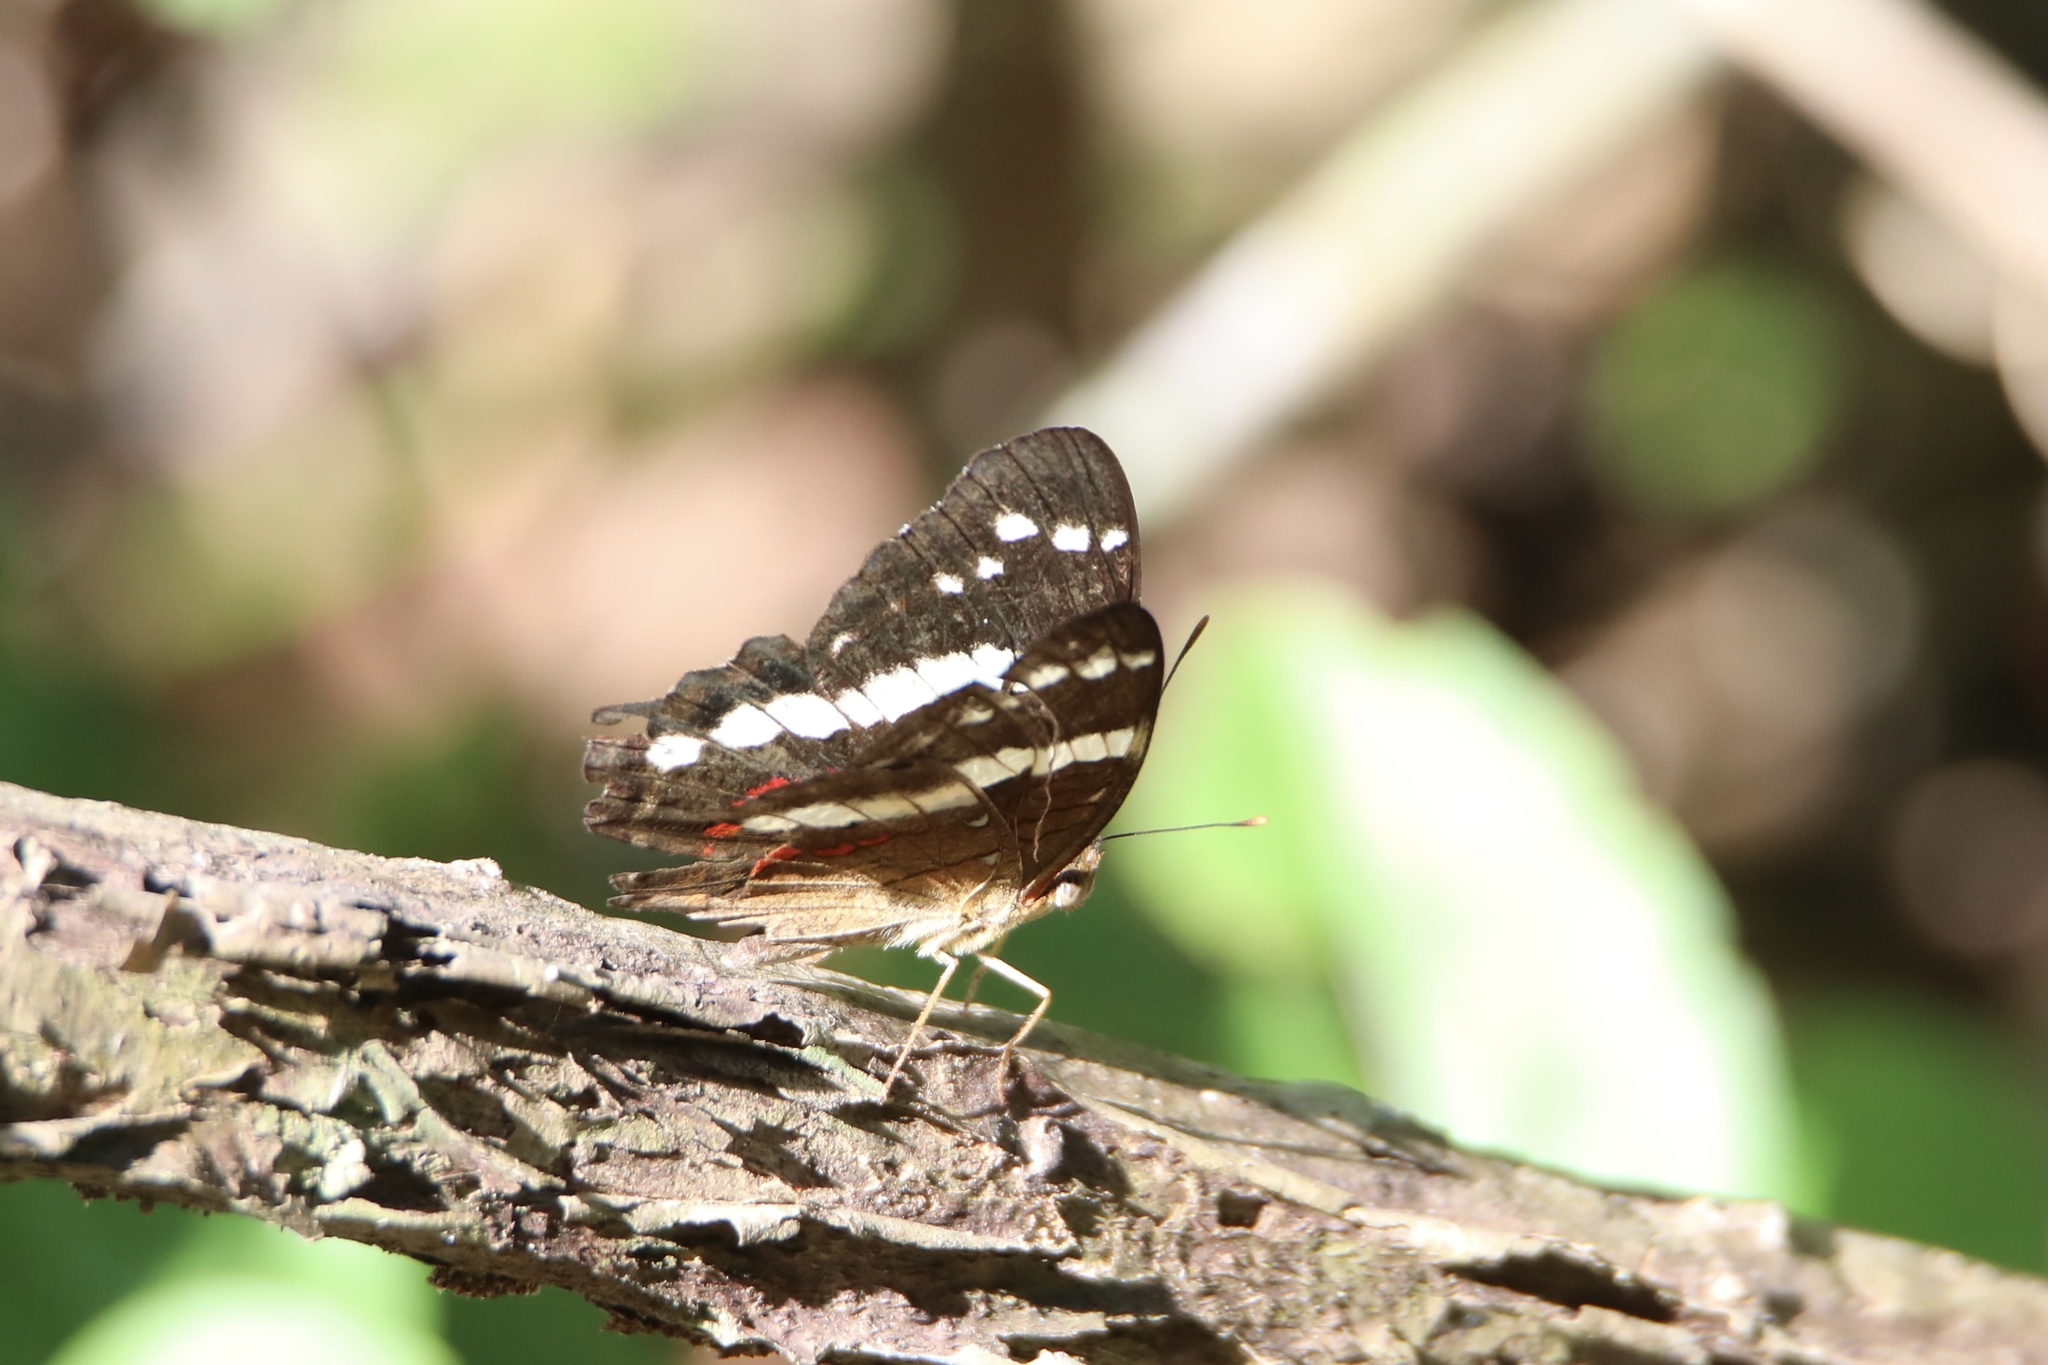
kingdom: Animalia
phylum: Arthropoda
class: Insecta
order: Lepidoptera
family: Nymphalidae
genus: Anartia
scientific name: Anartia fatima
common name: Banded peacock
